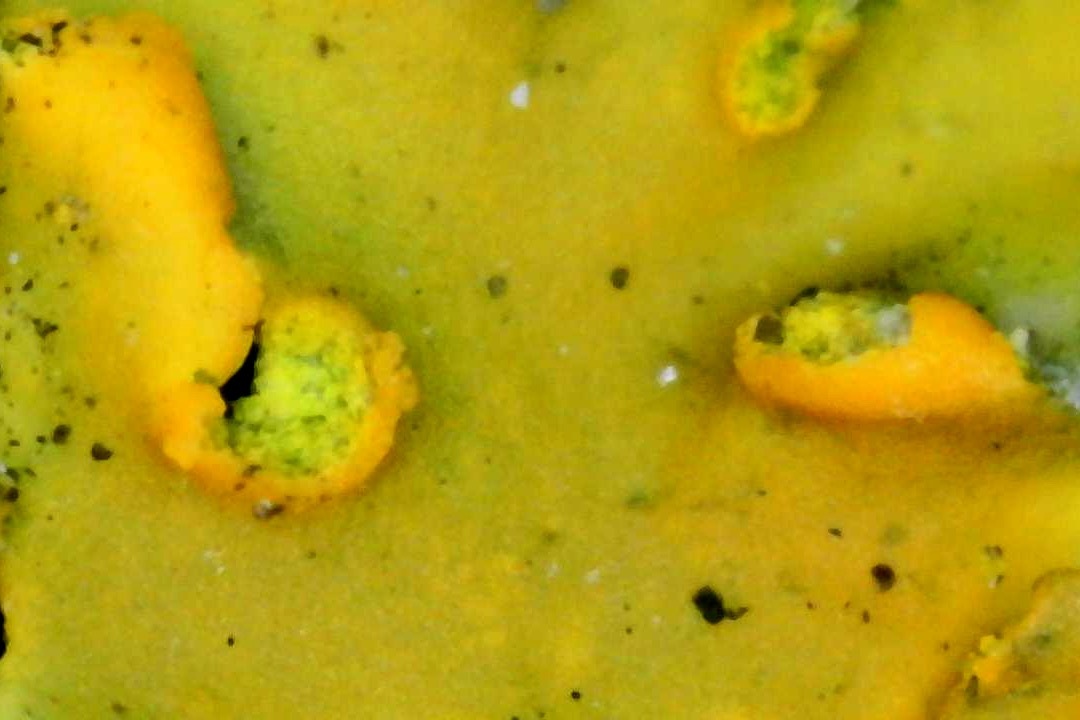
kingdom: Fungi
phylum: Ascomycota
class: Lecanoromycetes
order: Teloschistales
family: Teloschistaceae
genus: Oxneria
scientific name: Oxneria fallax
